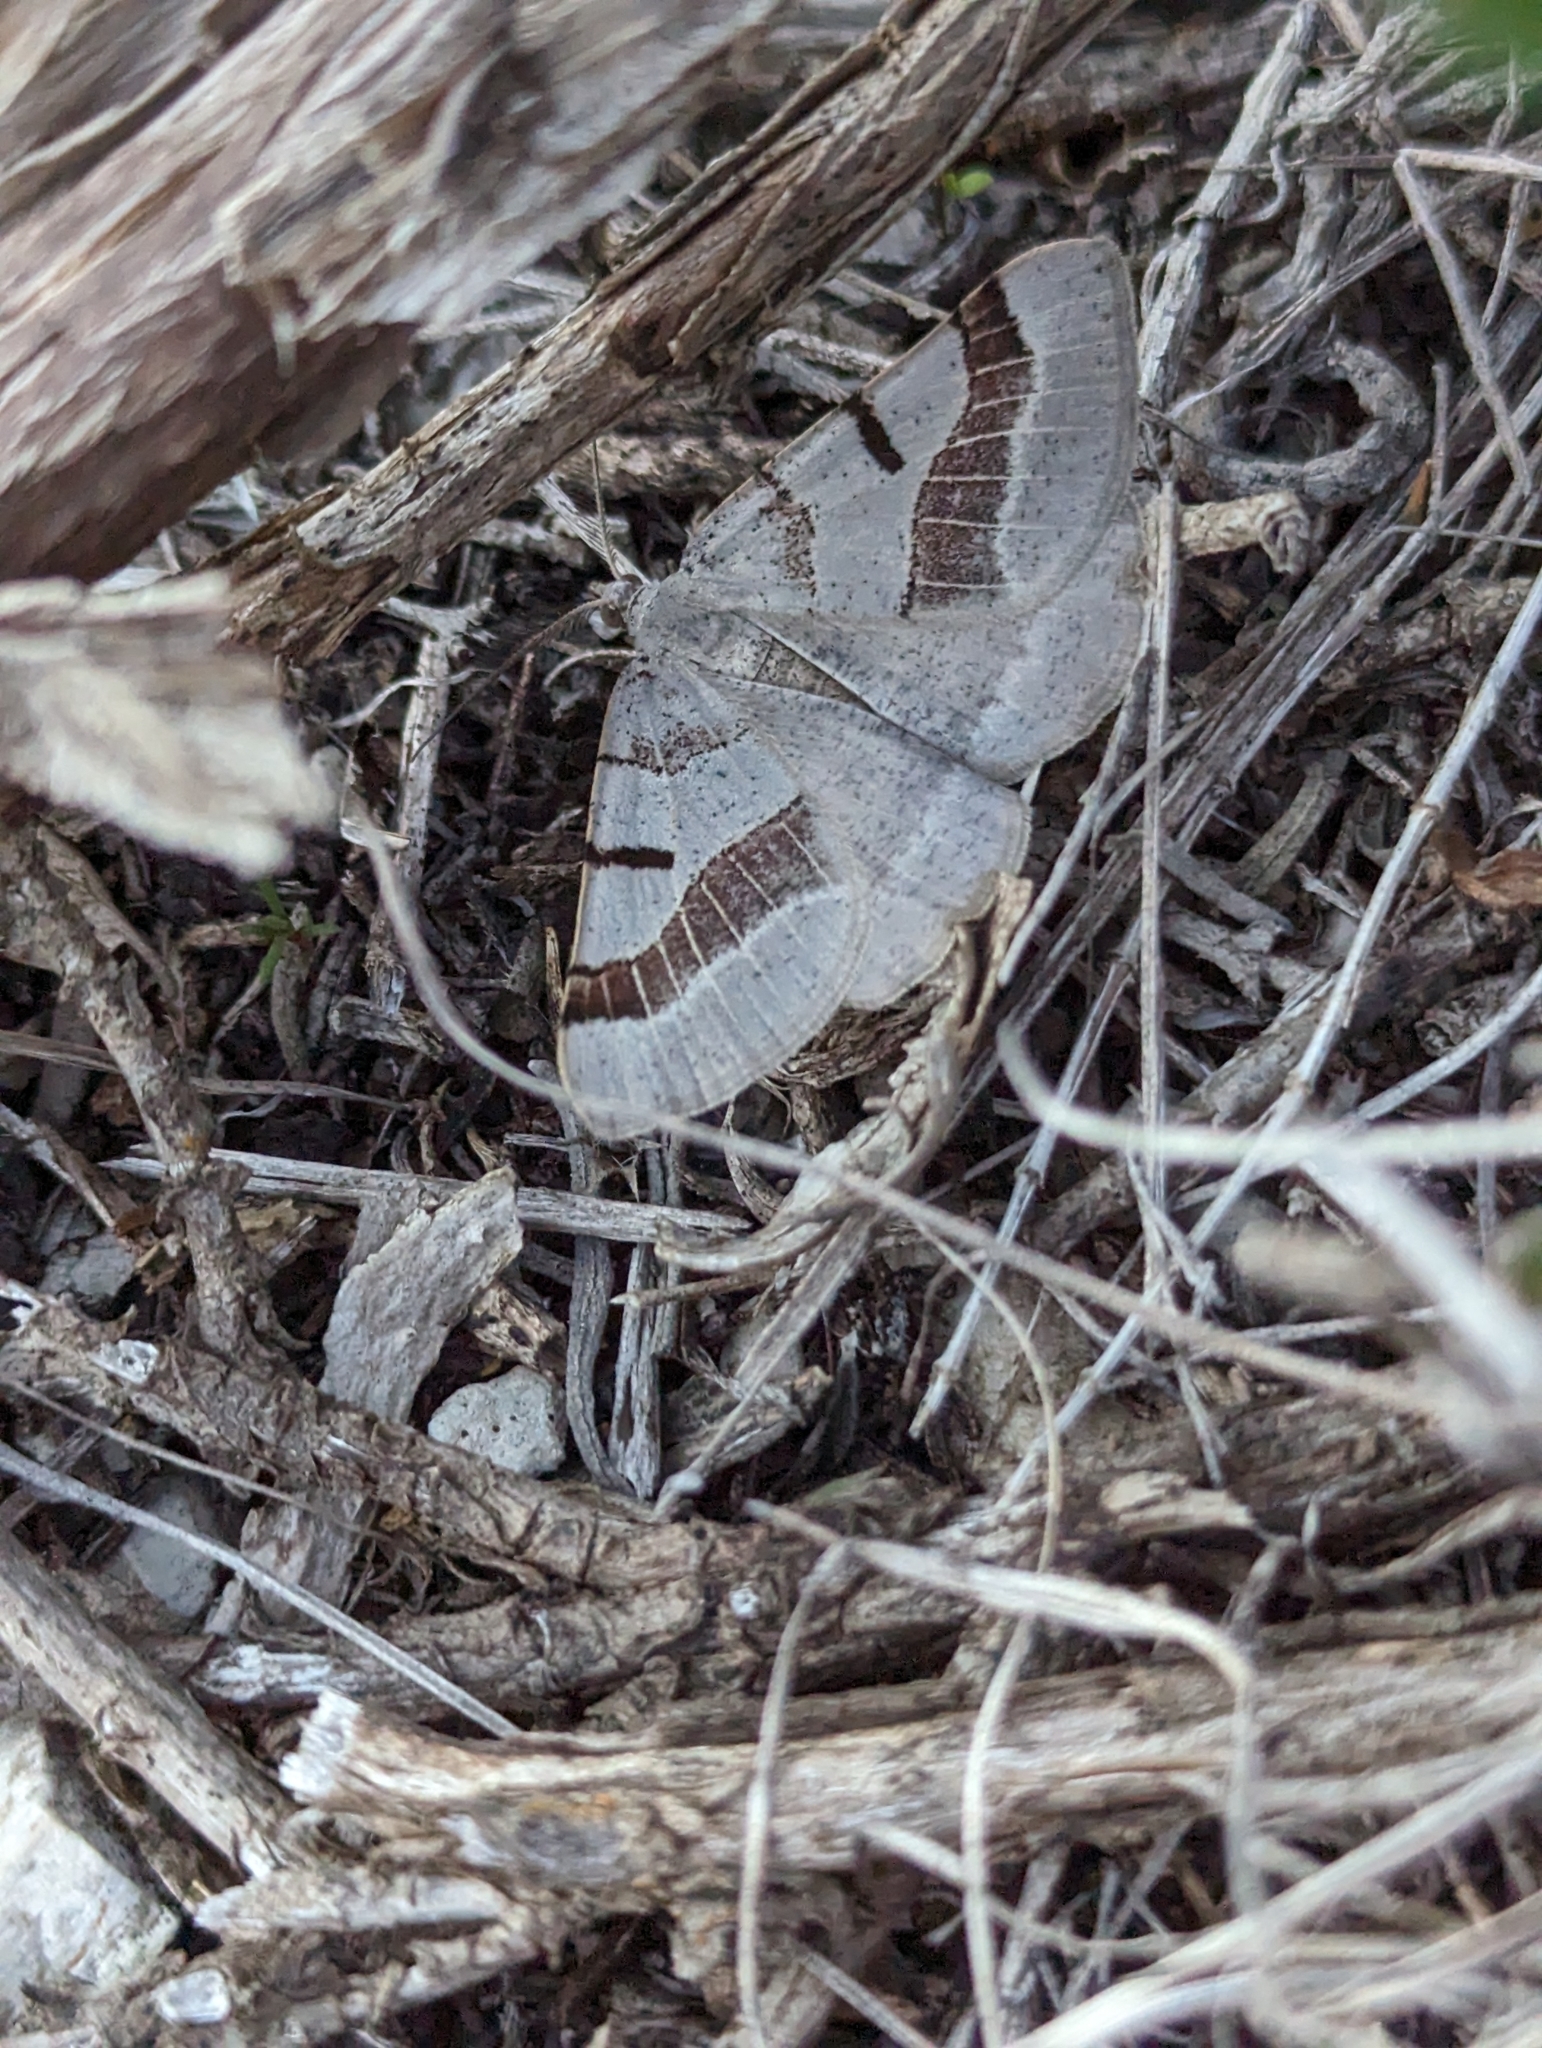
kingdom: Animalia
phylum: Arthropoda
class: Insecta
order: Lepidoptera
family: Geometridae
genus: Itame
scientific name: Itame vincularia
